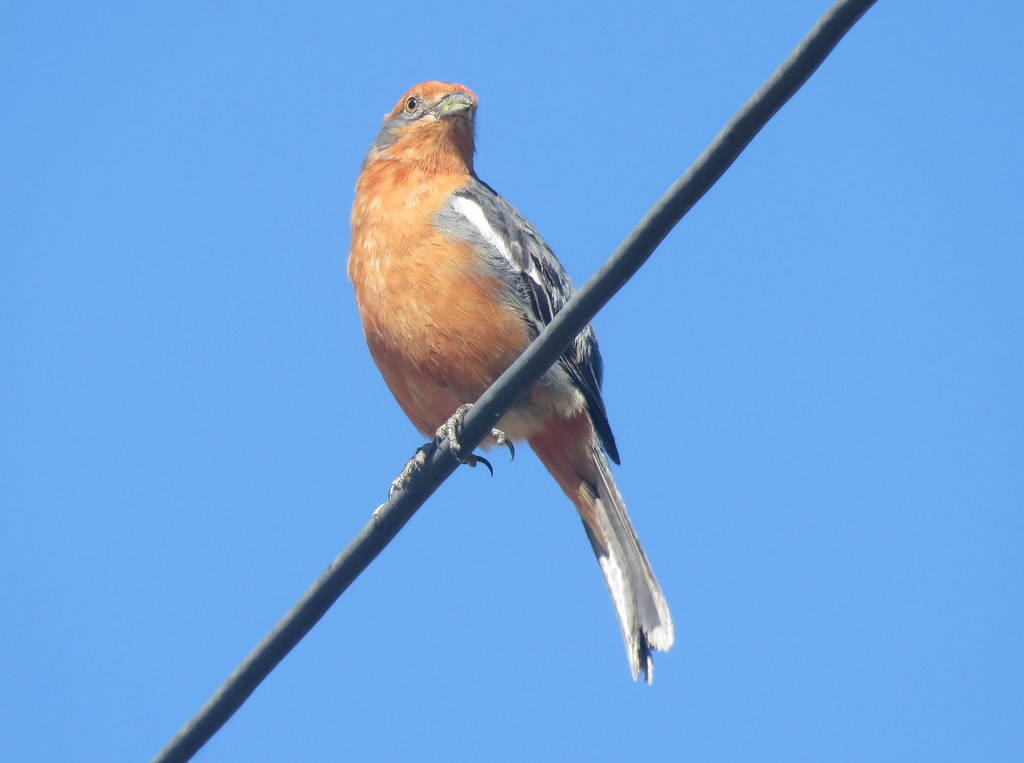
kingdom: Animalia
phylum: Chordata
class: Aves
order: Passeriformes
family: Cotingidae
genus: Phytotoma
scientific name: Phytotoma rutila
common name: White-tipped plantcutter
